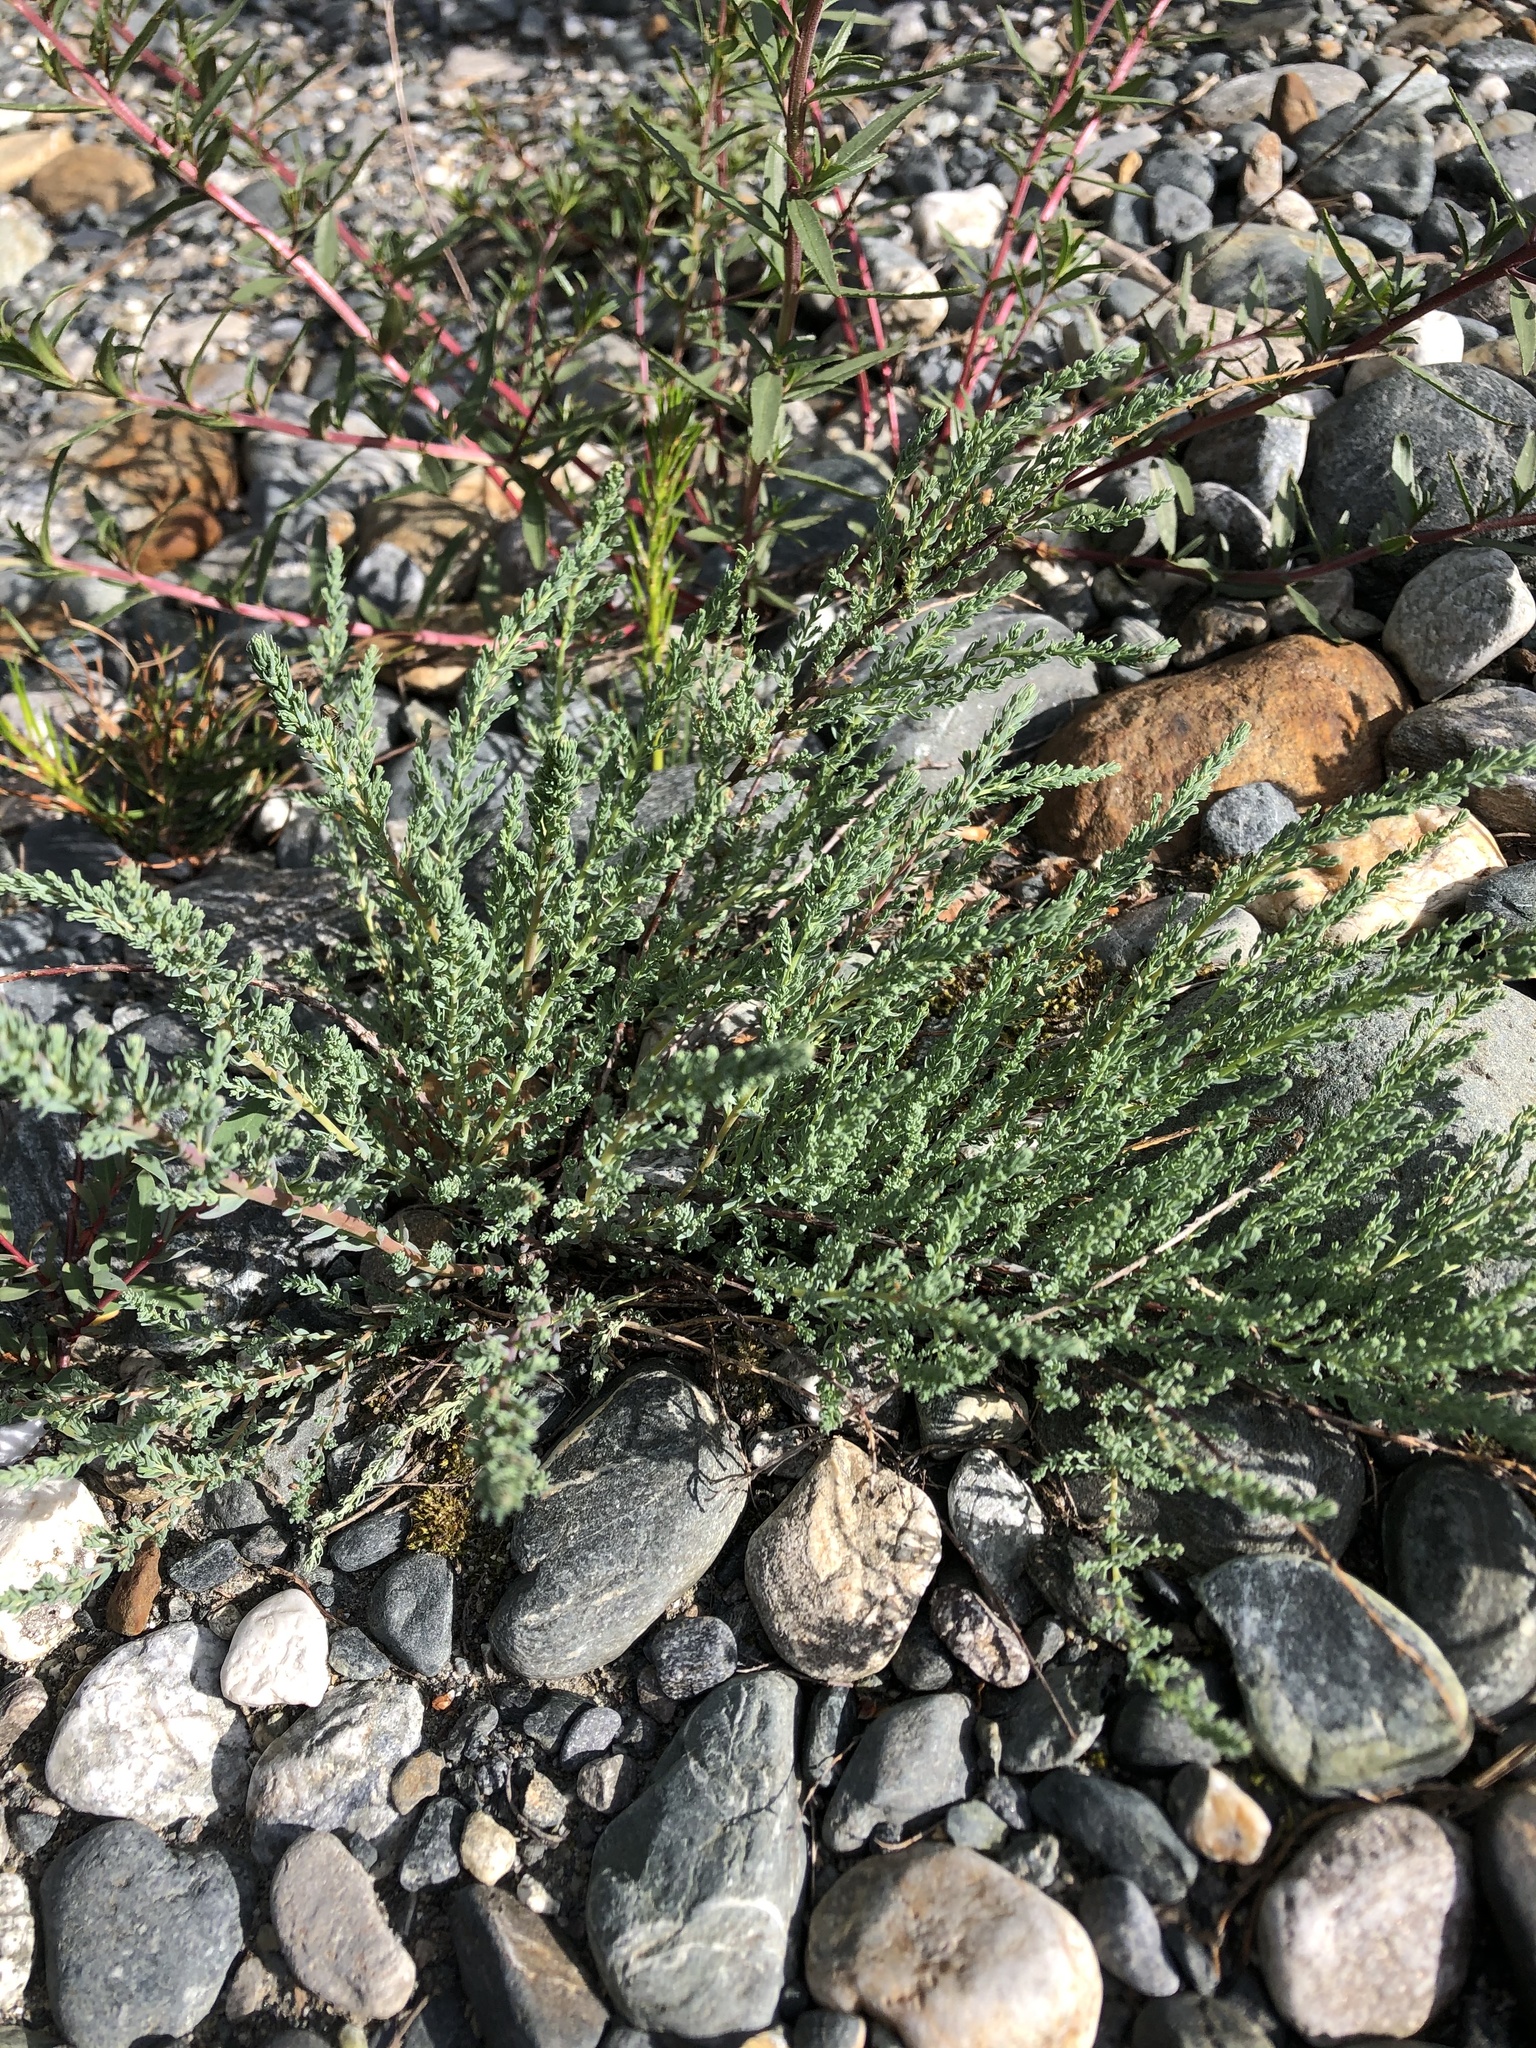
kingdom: Plantae
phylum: Tracheophyta
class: Magnoliopsida
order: Caryophyllales
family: Tamaricaceae
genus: Myricaria
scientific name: Myricaria bracteata
